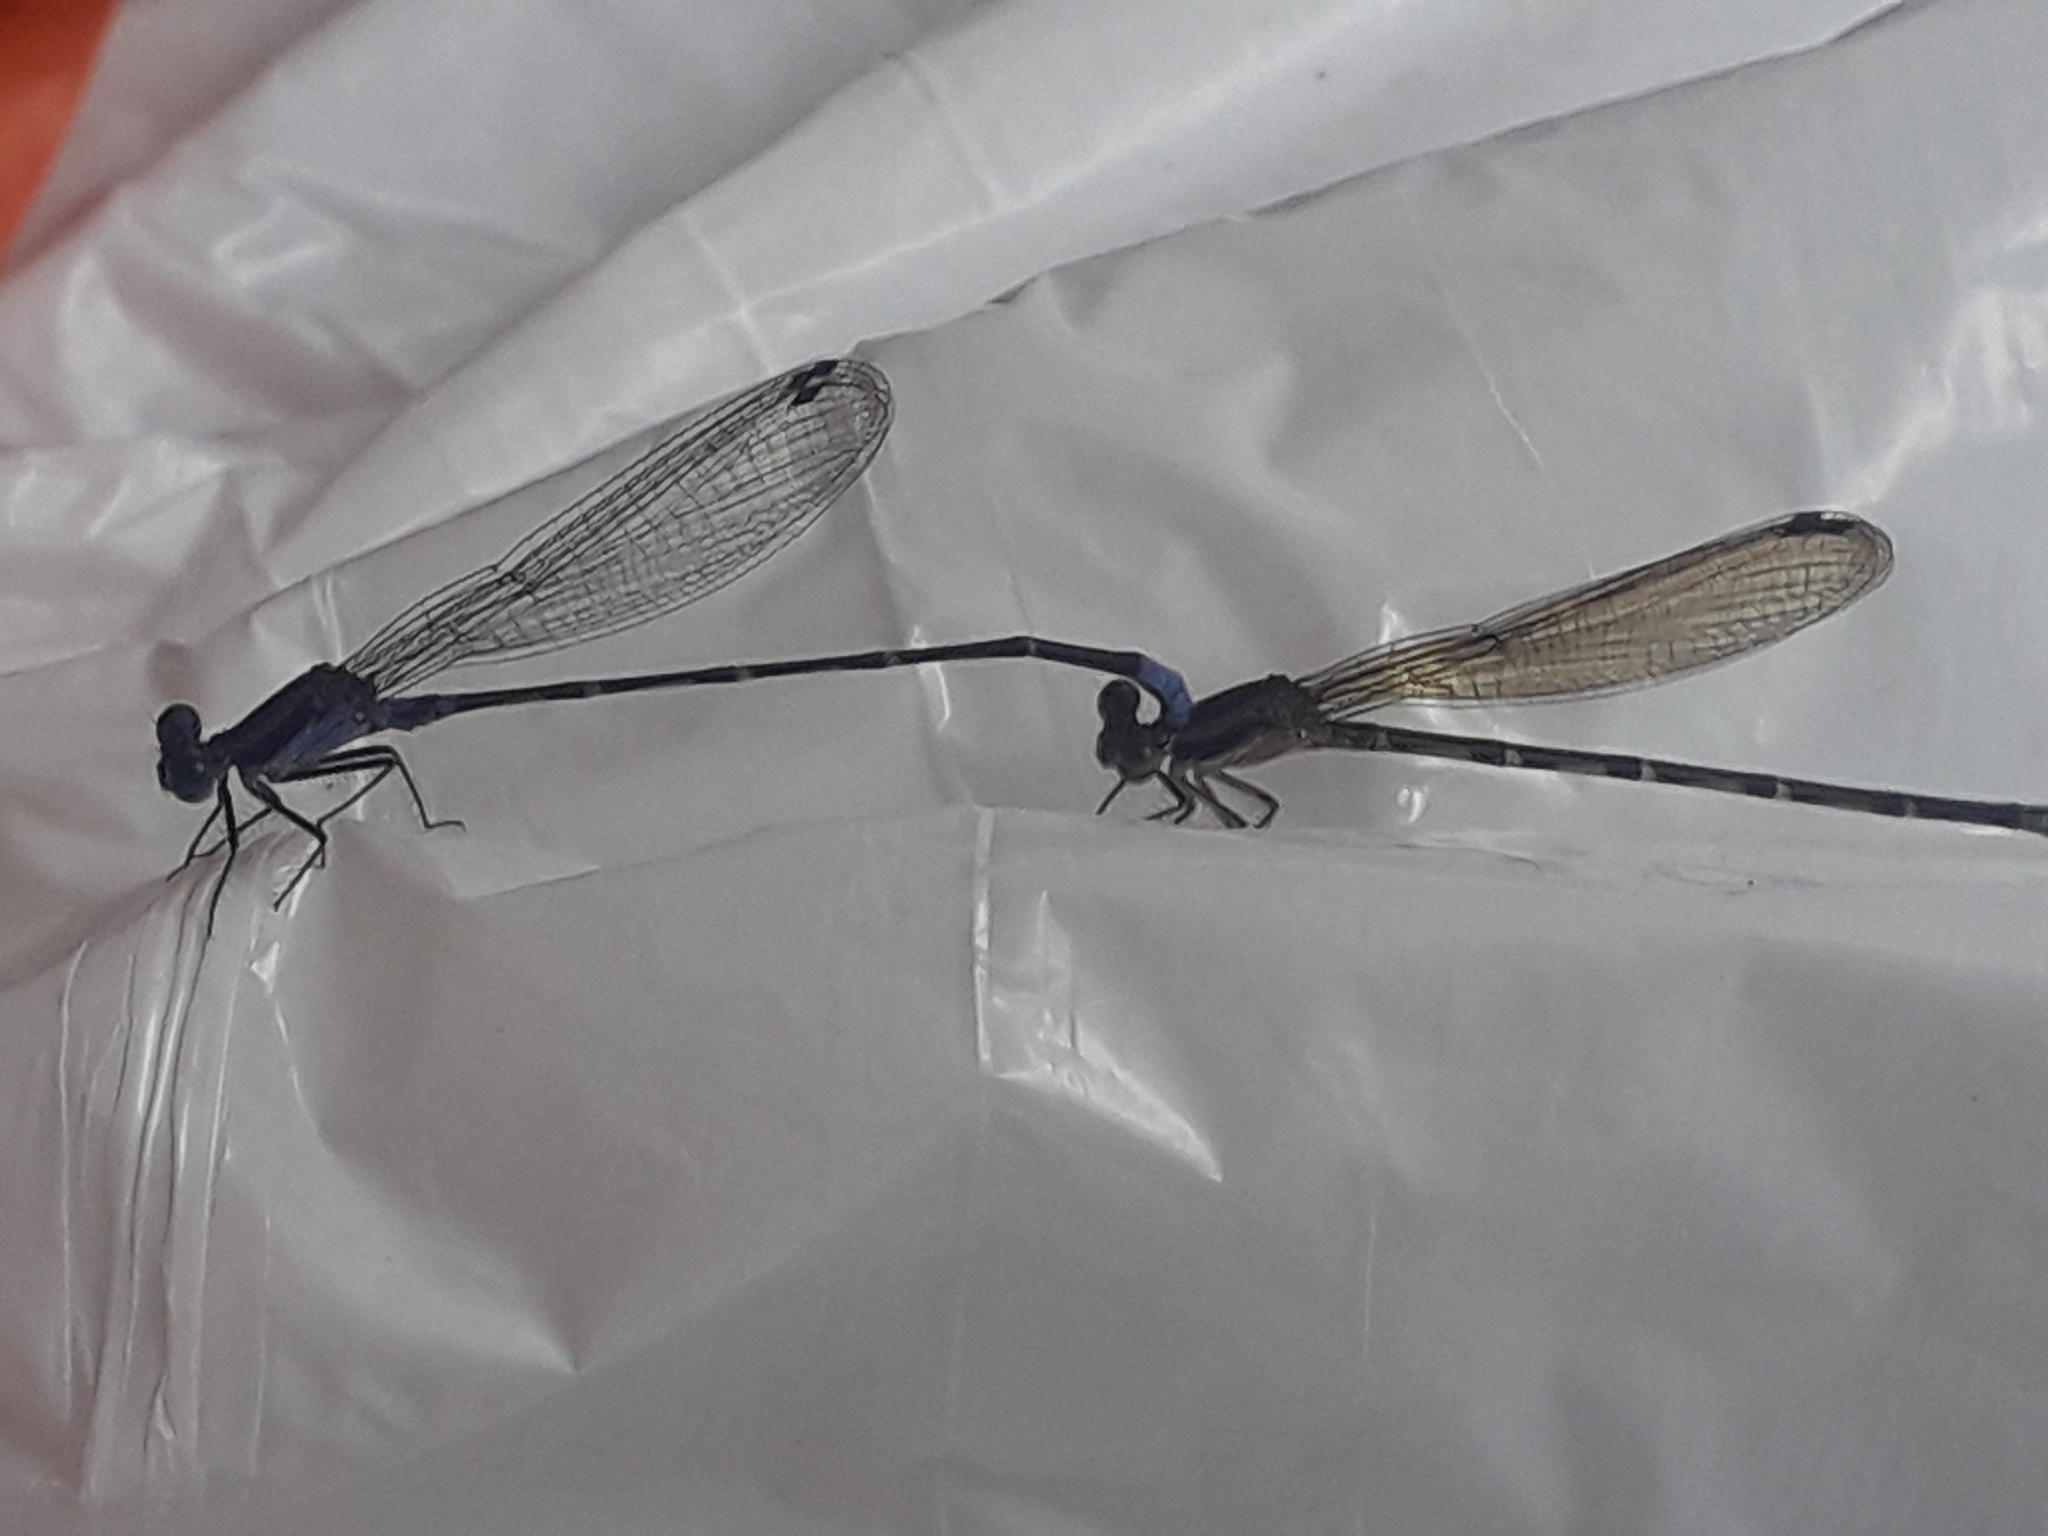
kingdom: Animalia
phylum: Arthropoda
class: Insecta
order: Odonata
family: Coenagrionidae
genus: Argia
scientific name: Argia pulla
